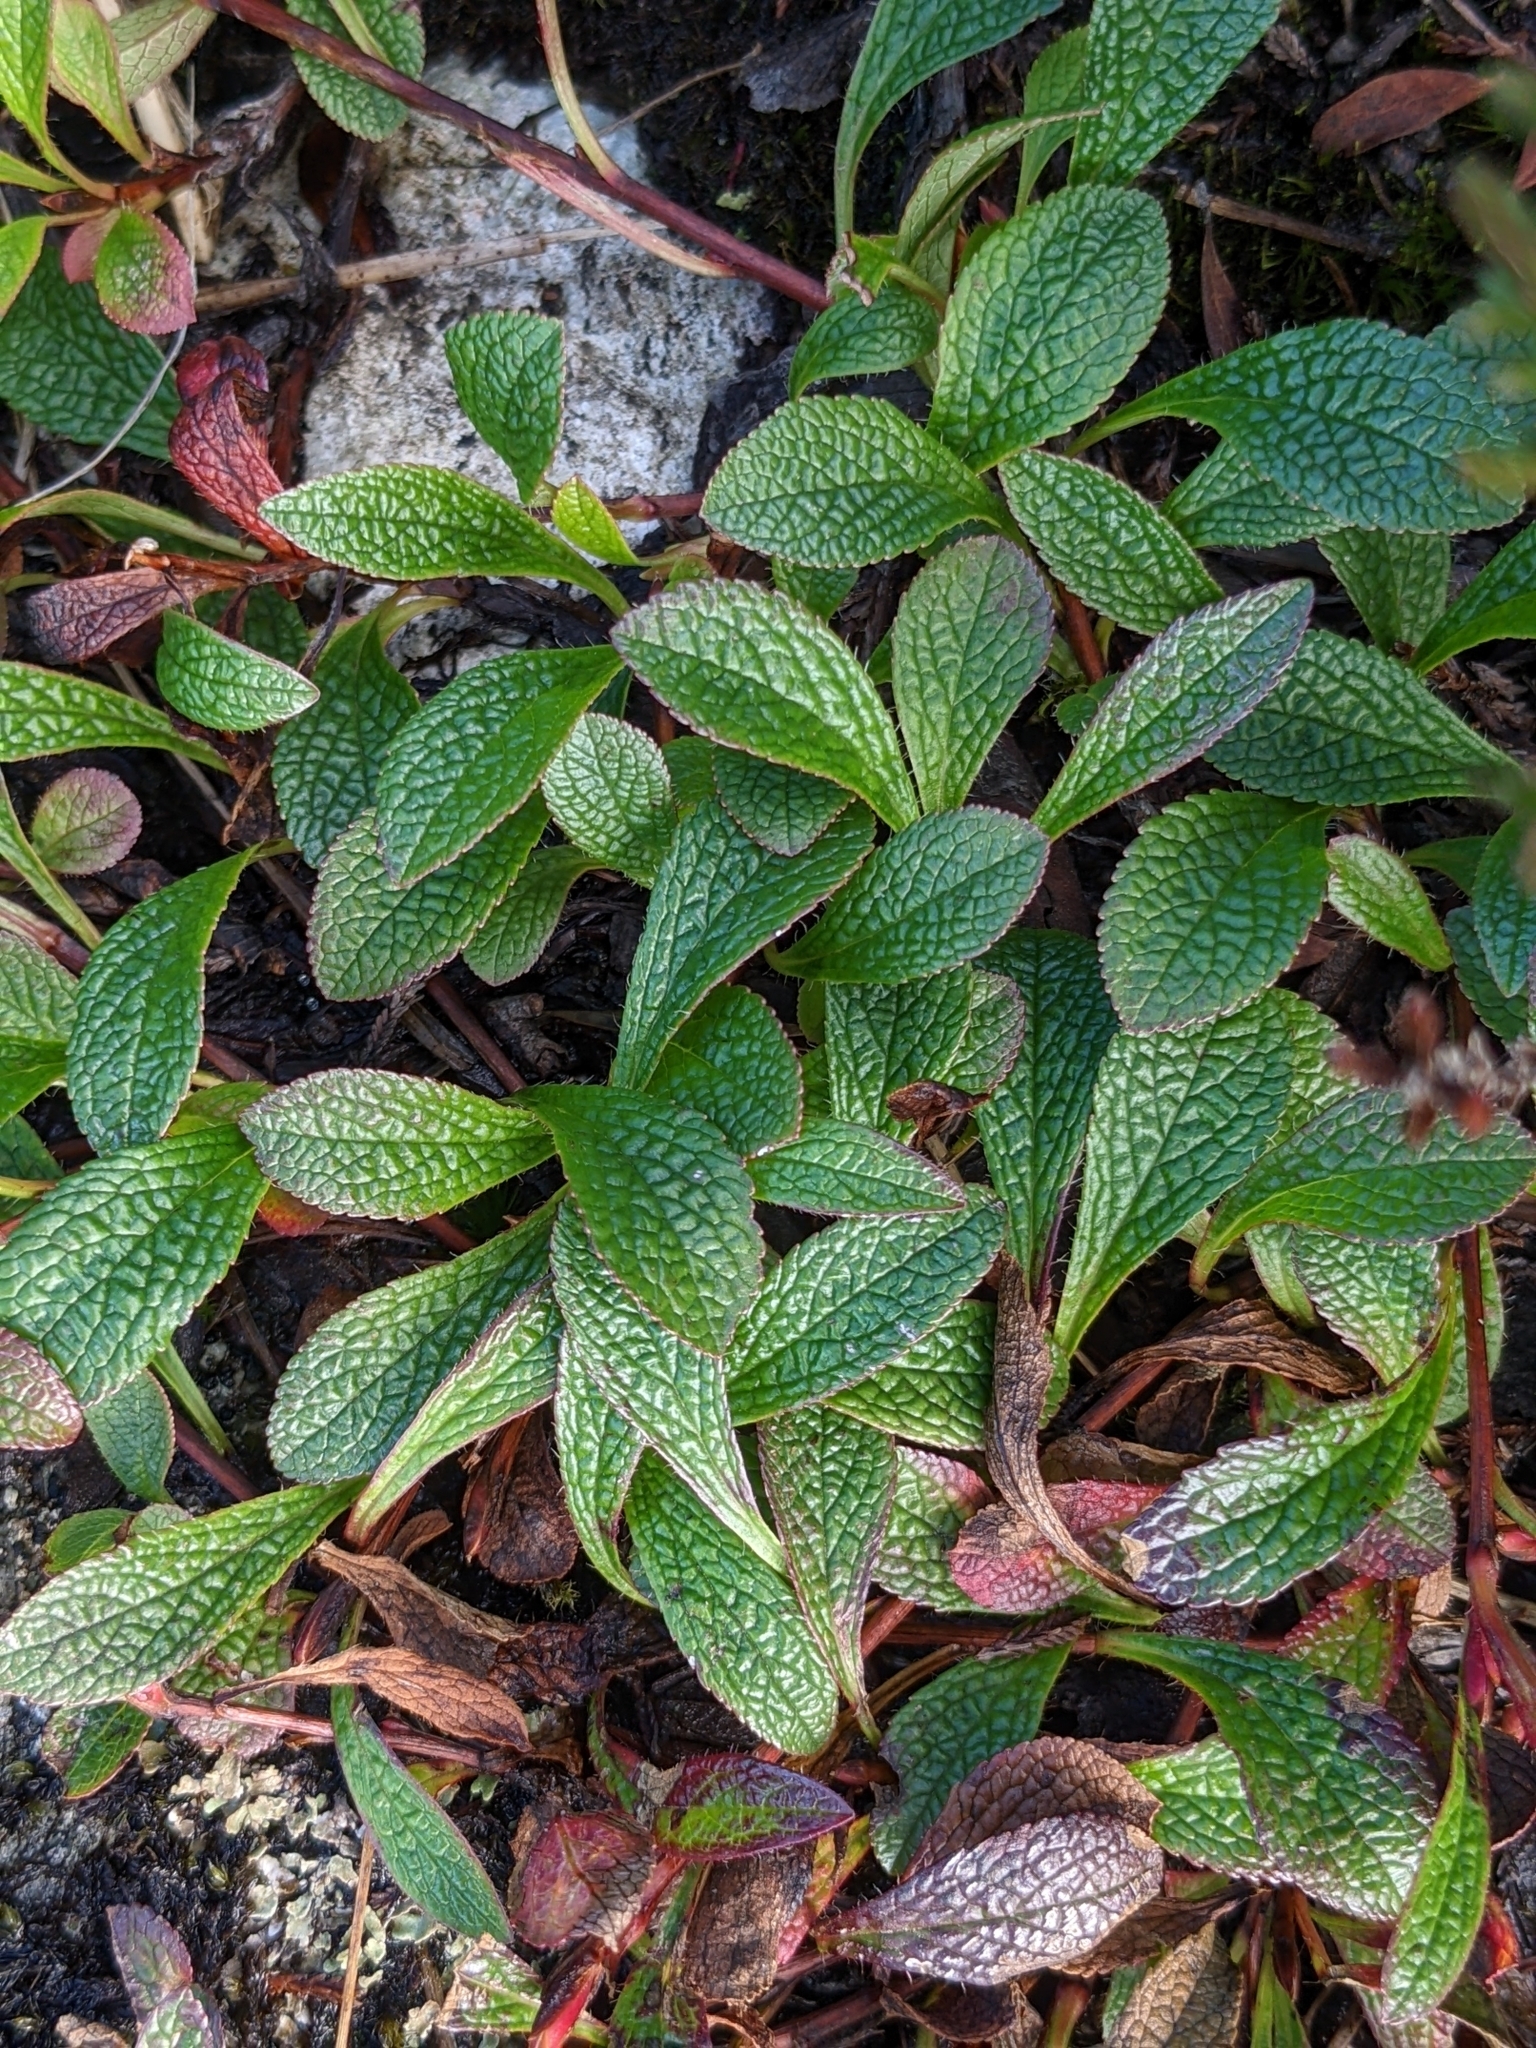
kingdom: Plantae
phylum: Tracheophyta
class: Magnoliopsida
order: Ericales
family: Ericaceae
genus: Arctostaphylos
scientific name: Arctostaphylos alpinus
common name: Alpine bearberry
